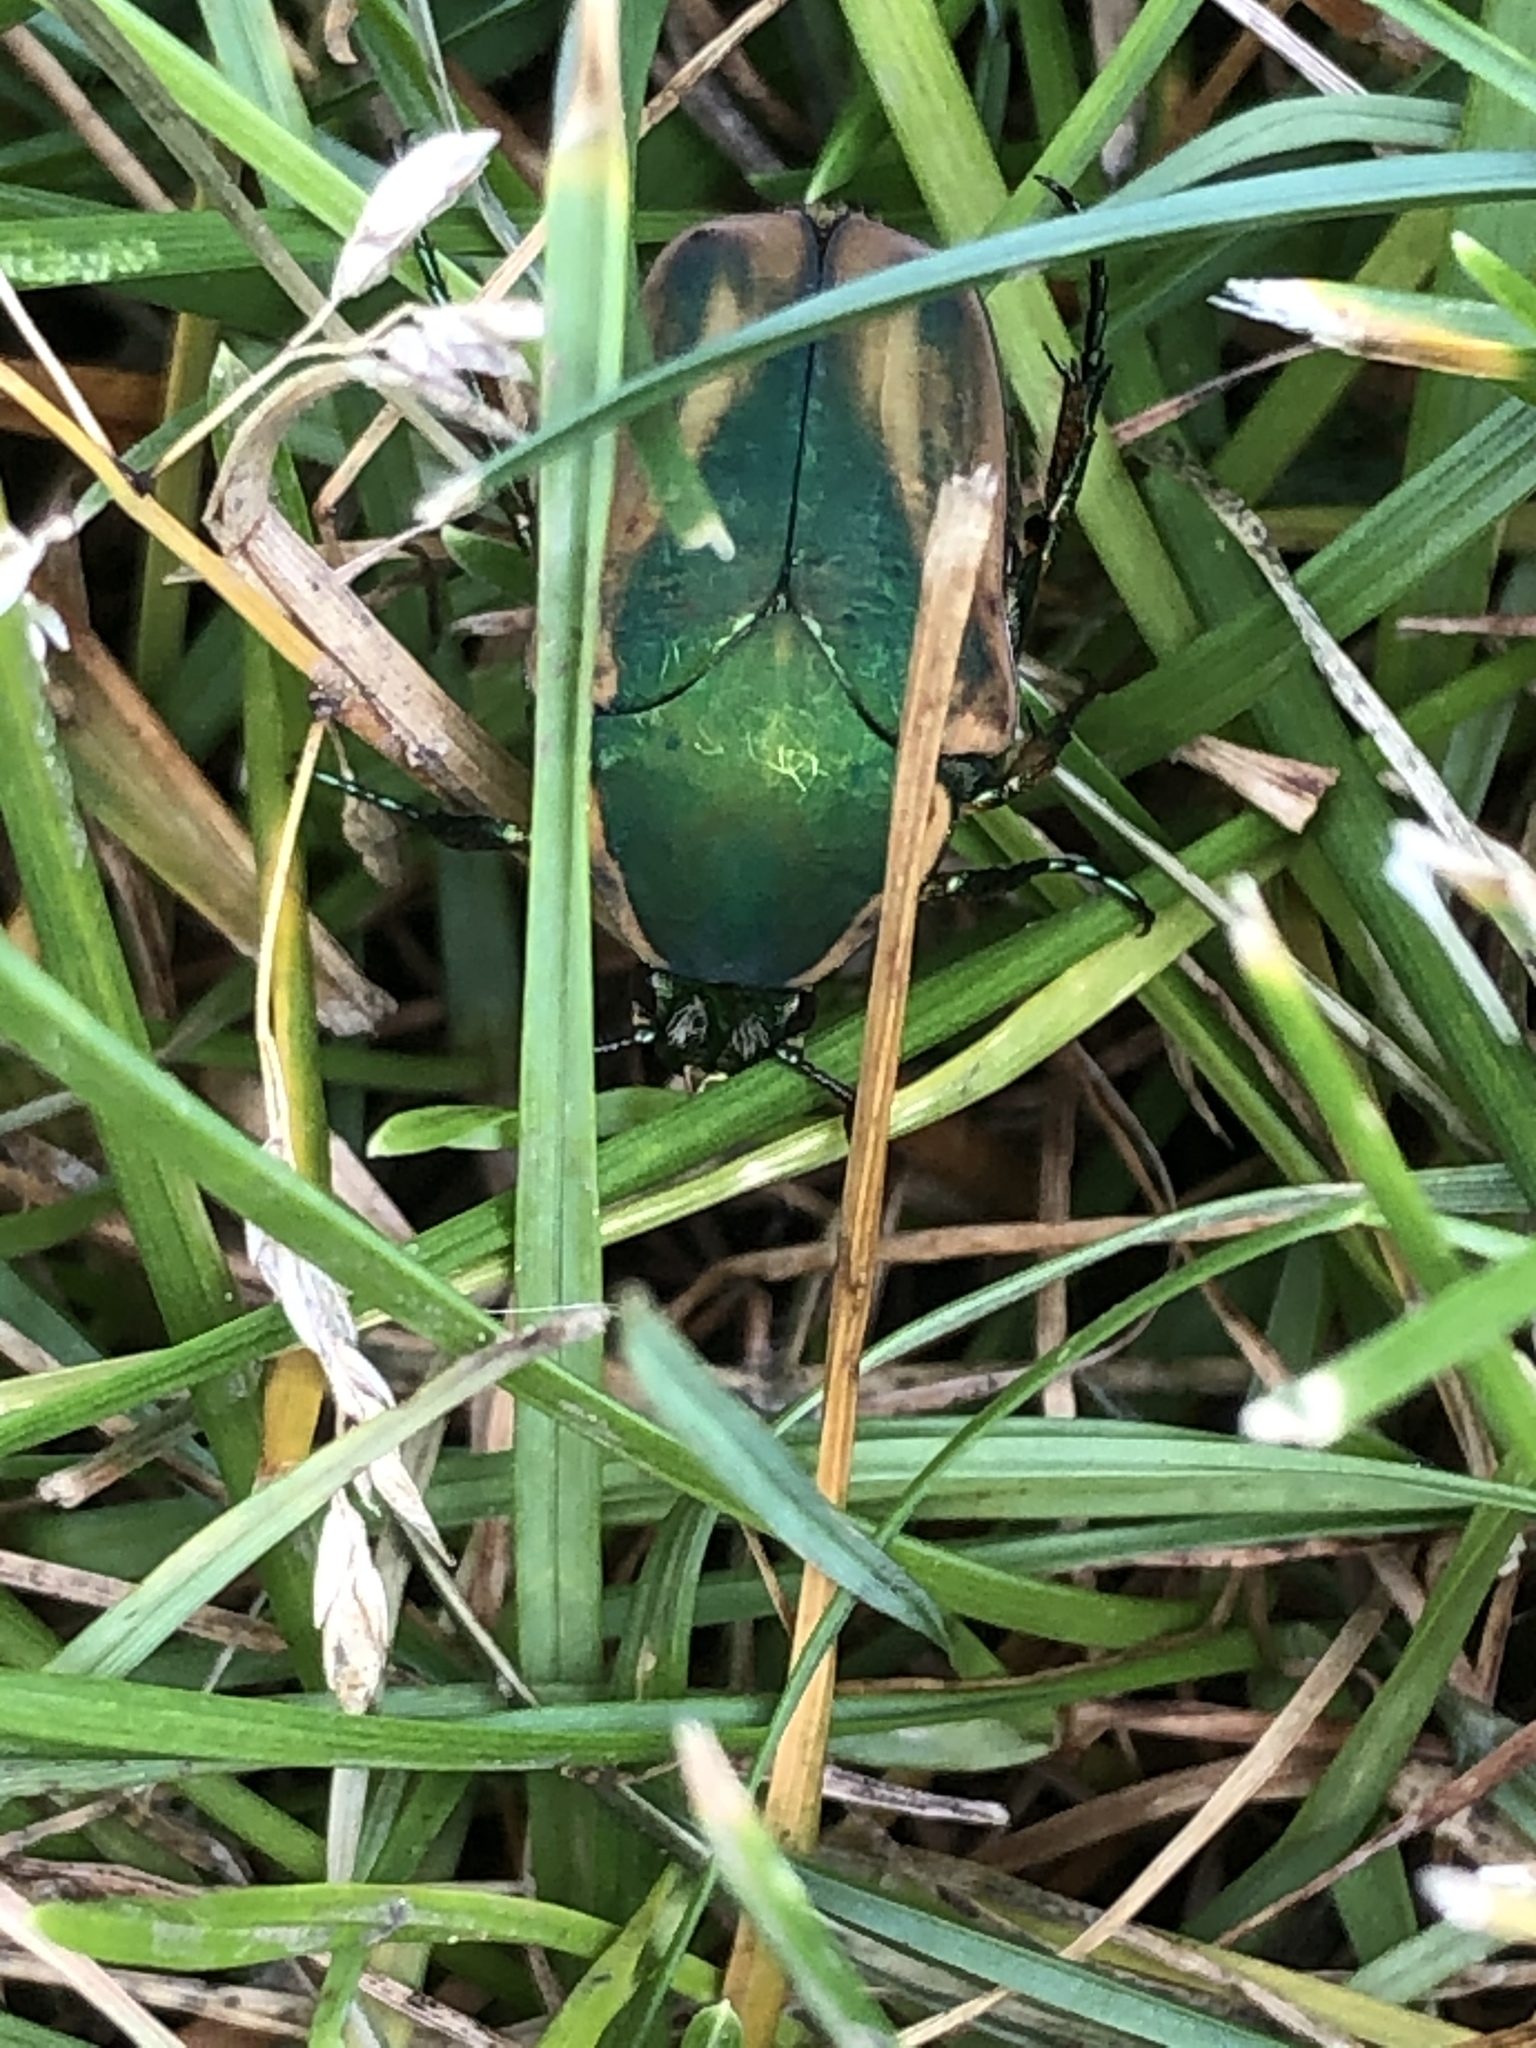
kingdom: Animalia
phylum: Arthropoda
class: Insecta
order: Coleoptera
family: Scarabaeidae
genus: Cotinis
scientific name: Cotinis nitida
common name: Common green june beetle
